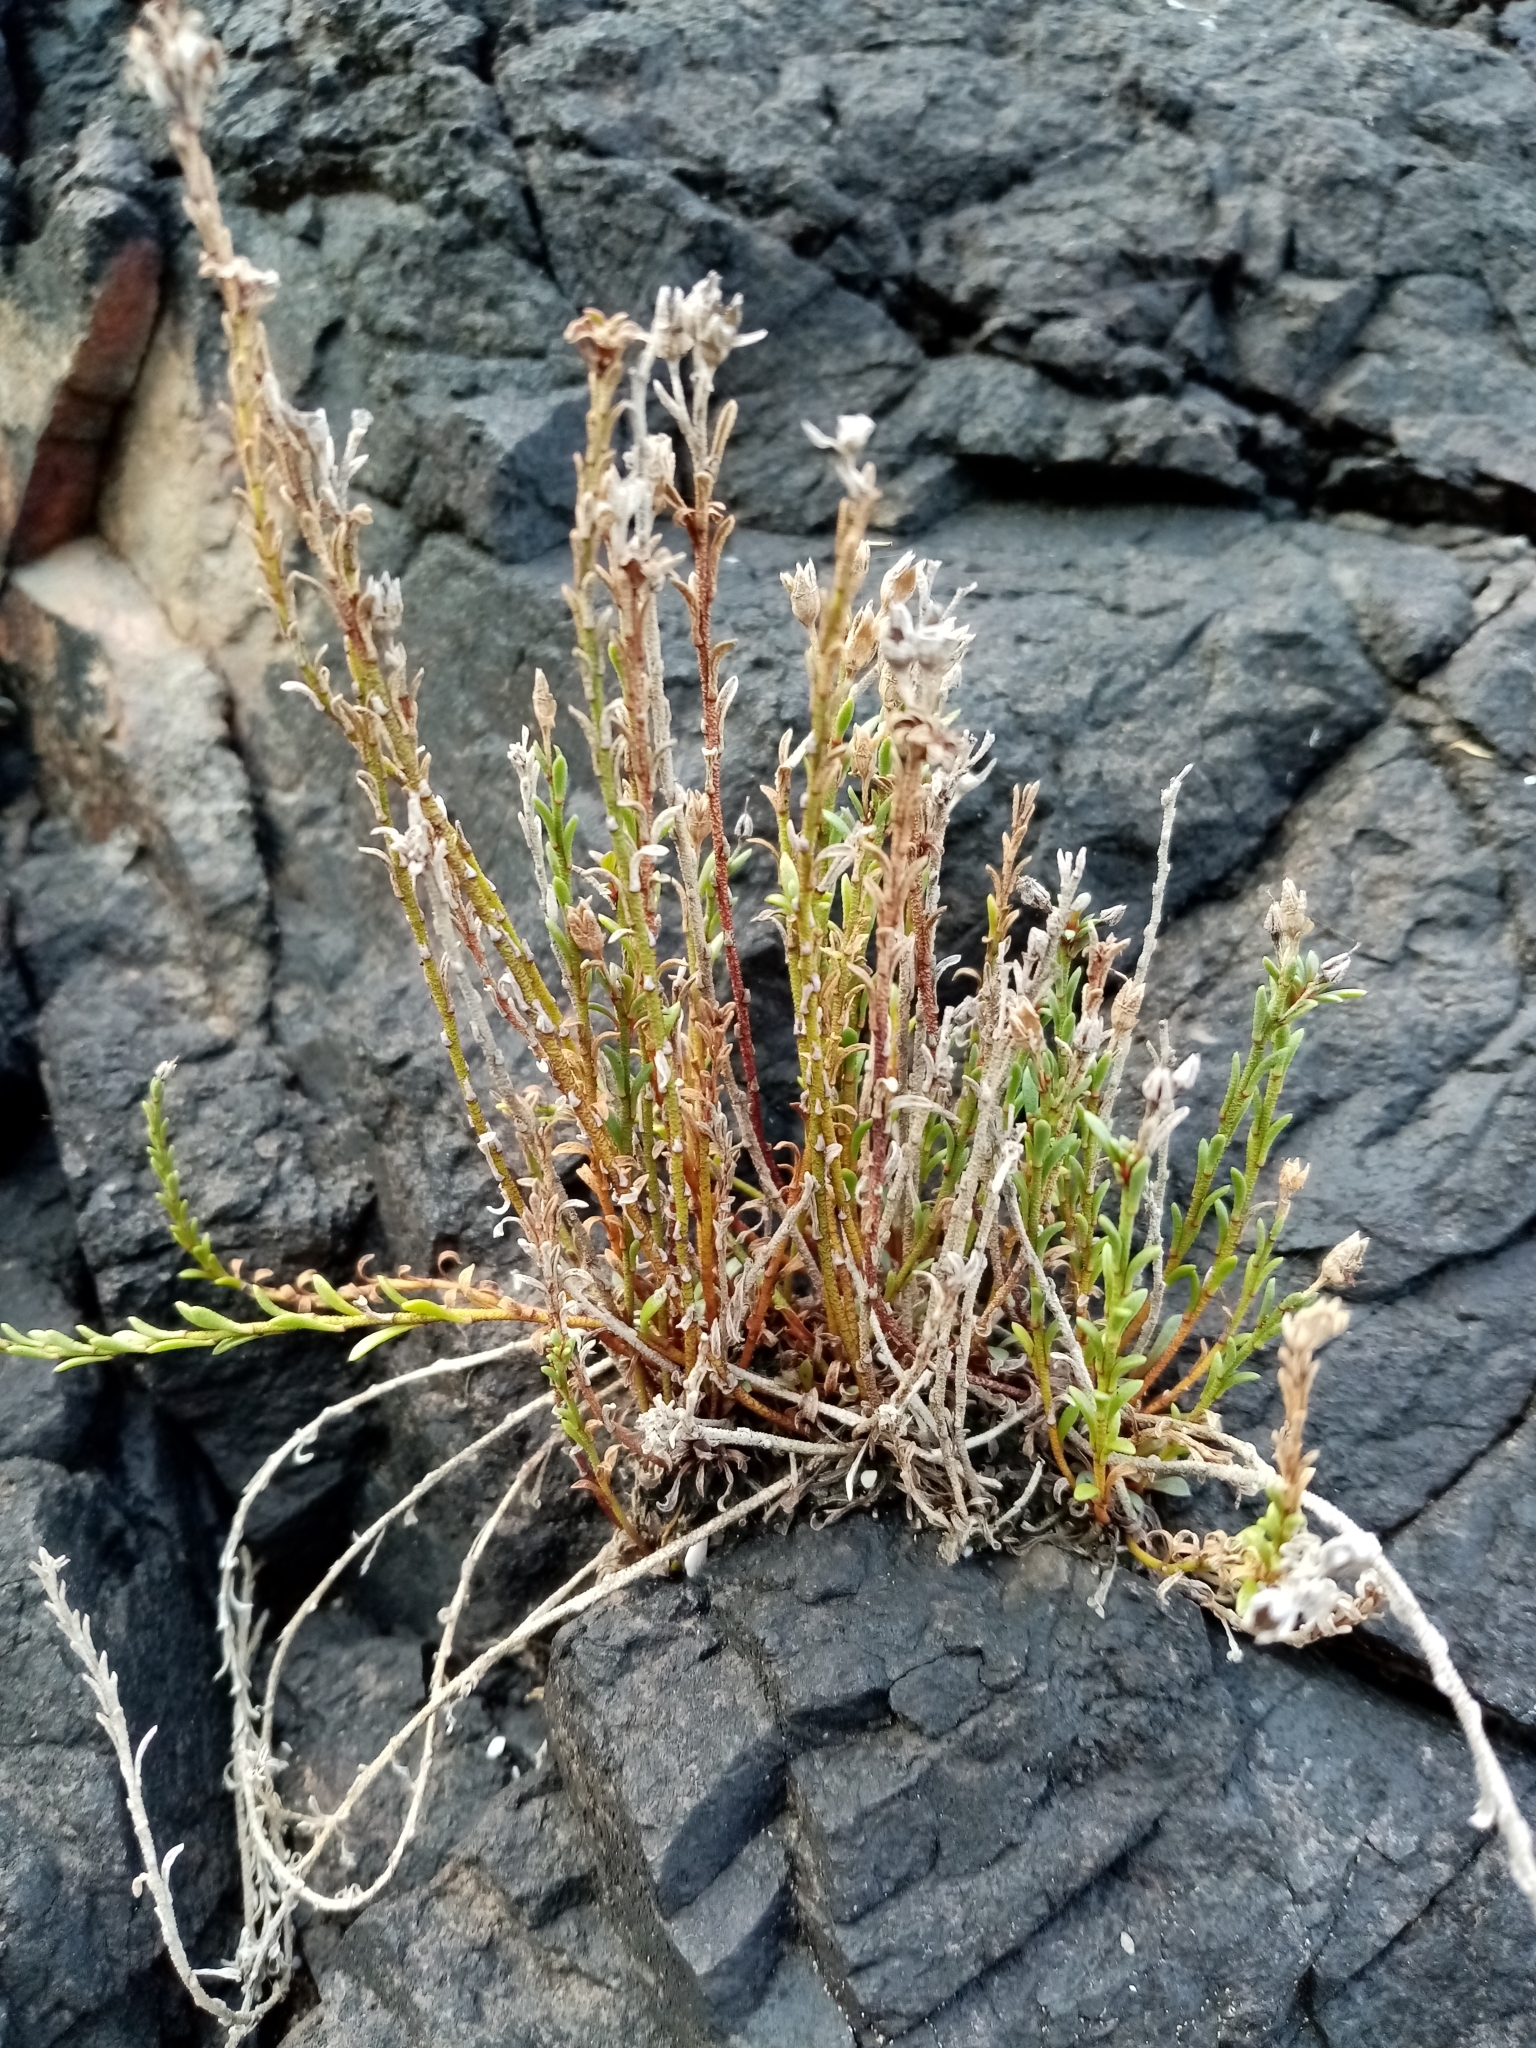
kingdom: Plantae
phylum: Tracheophyta
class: Magnoliopsida
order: Ericales
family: Primulaceae
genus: Samolus
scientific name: Samolus repens
